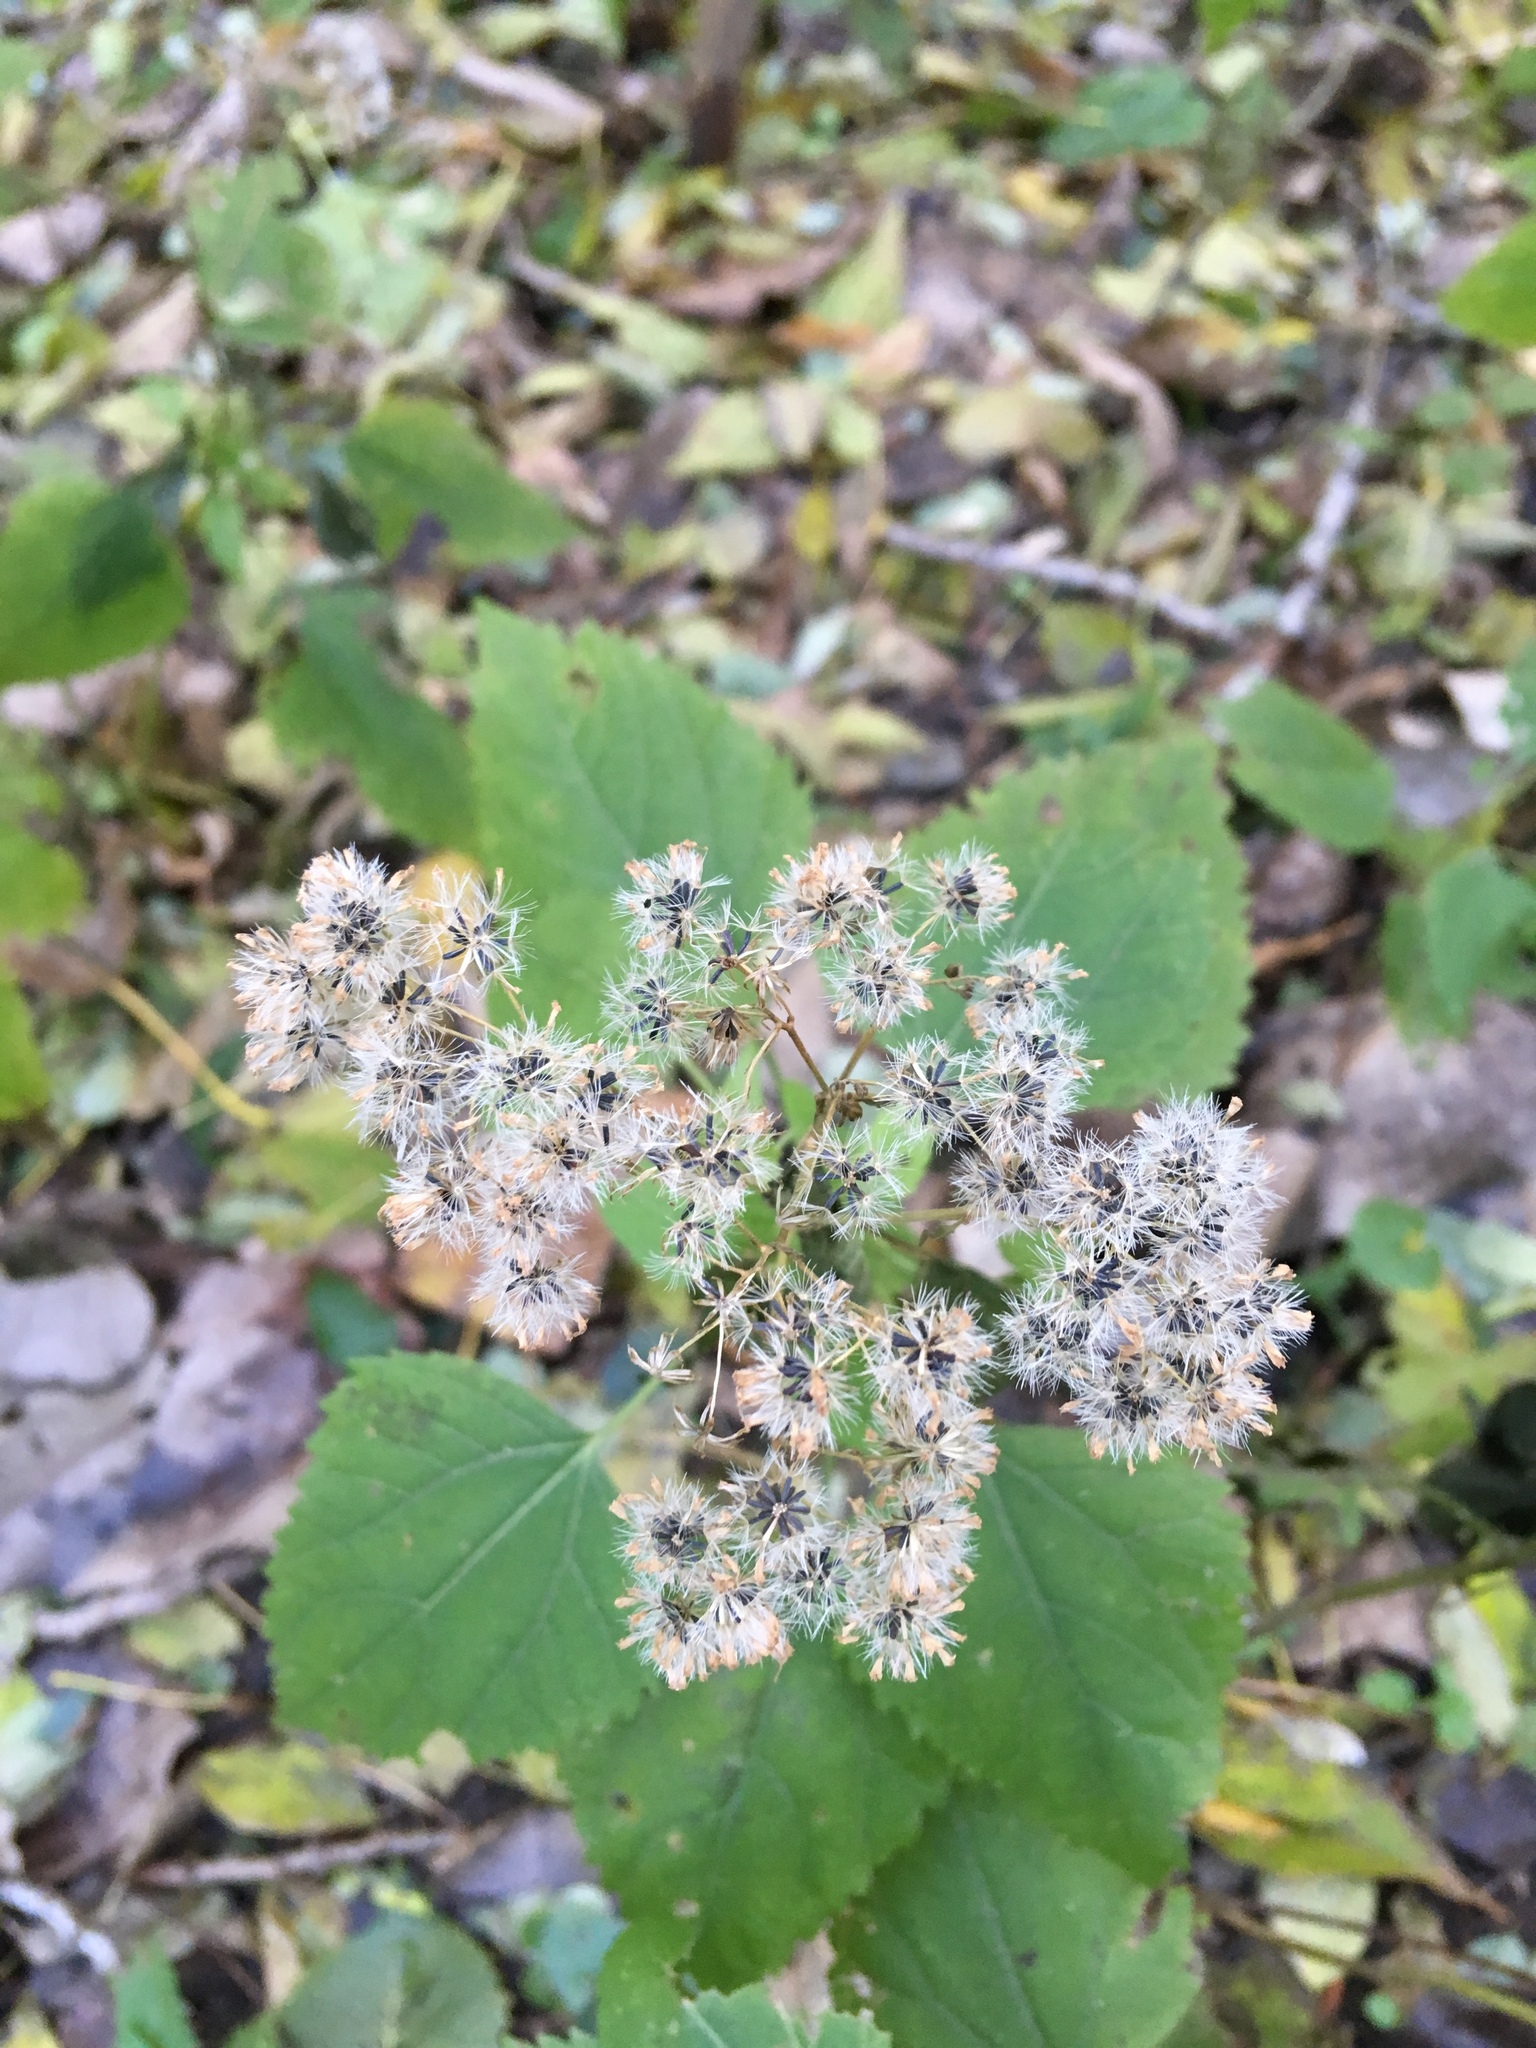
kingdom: Plantae
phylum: Tracheophyta
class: Magnoliopsida
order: Asterales
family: Asteraceae
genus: Ageratina
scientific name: Ageratina altissima
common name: White snakeroot
